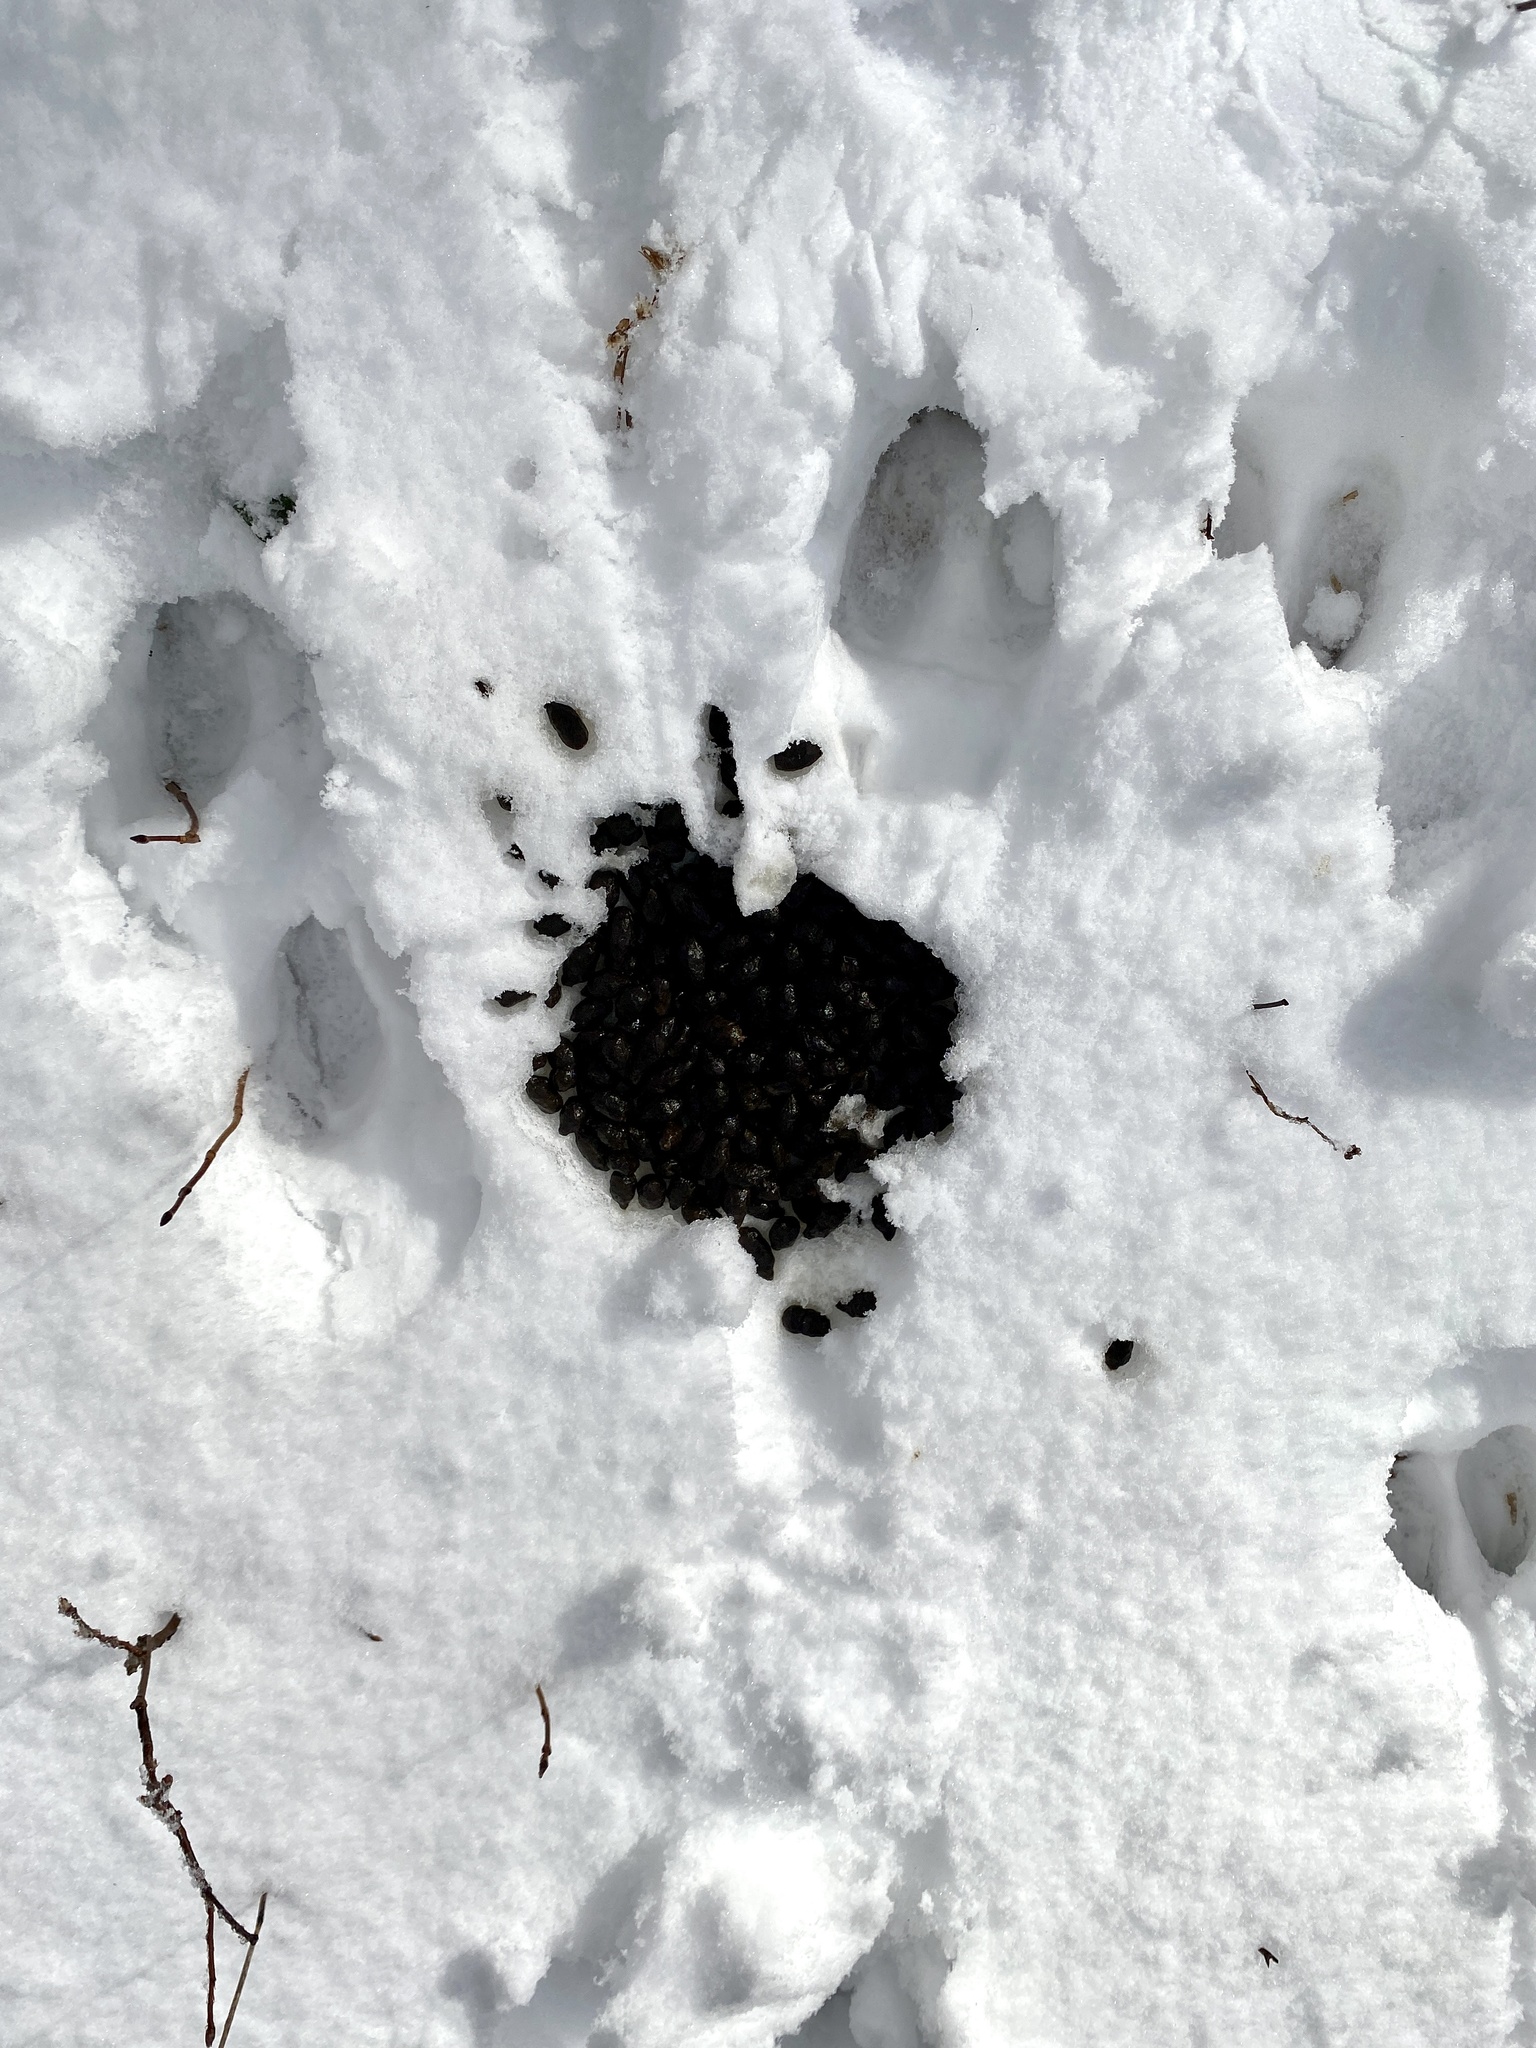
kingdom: Animalia
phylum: Chordata
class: Mammalia
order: Artiodactyla
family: Cervidae
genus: Odocoileus
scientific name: Odocoileus virginianus
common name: White-tailed deer
